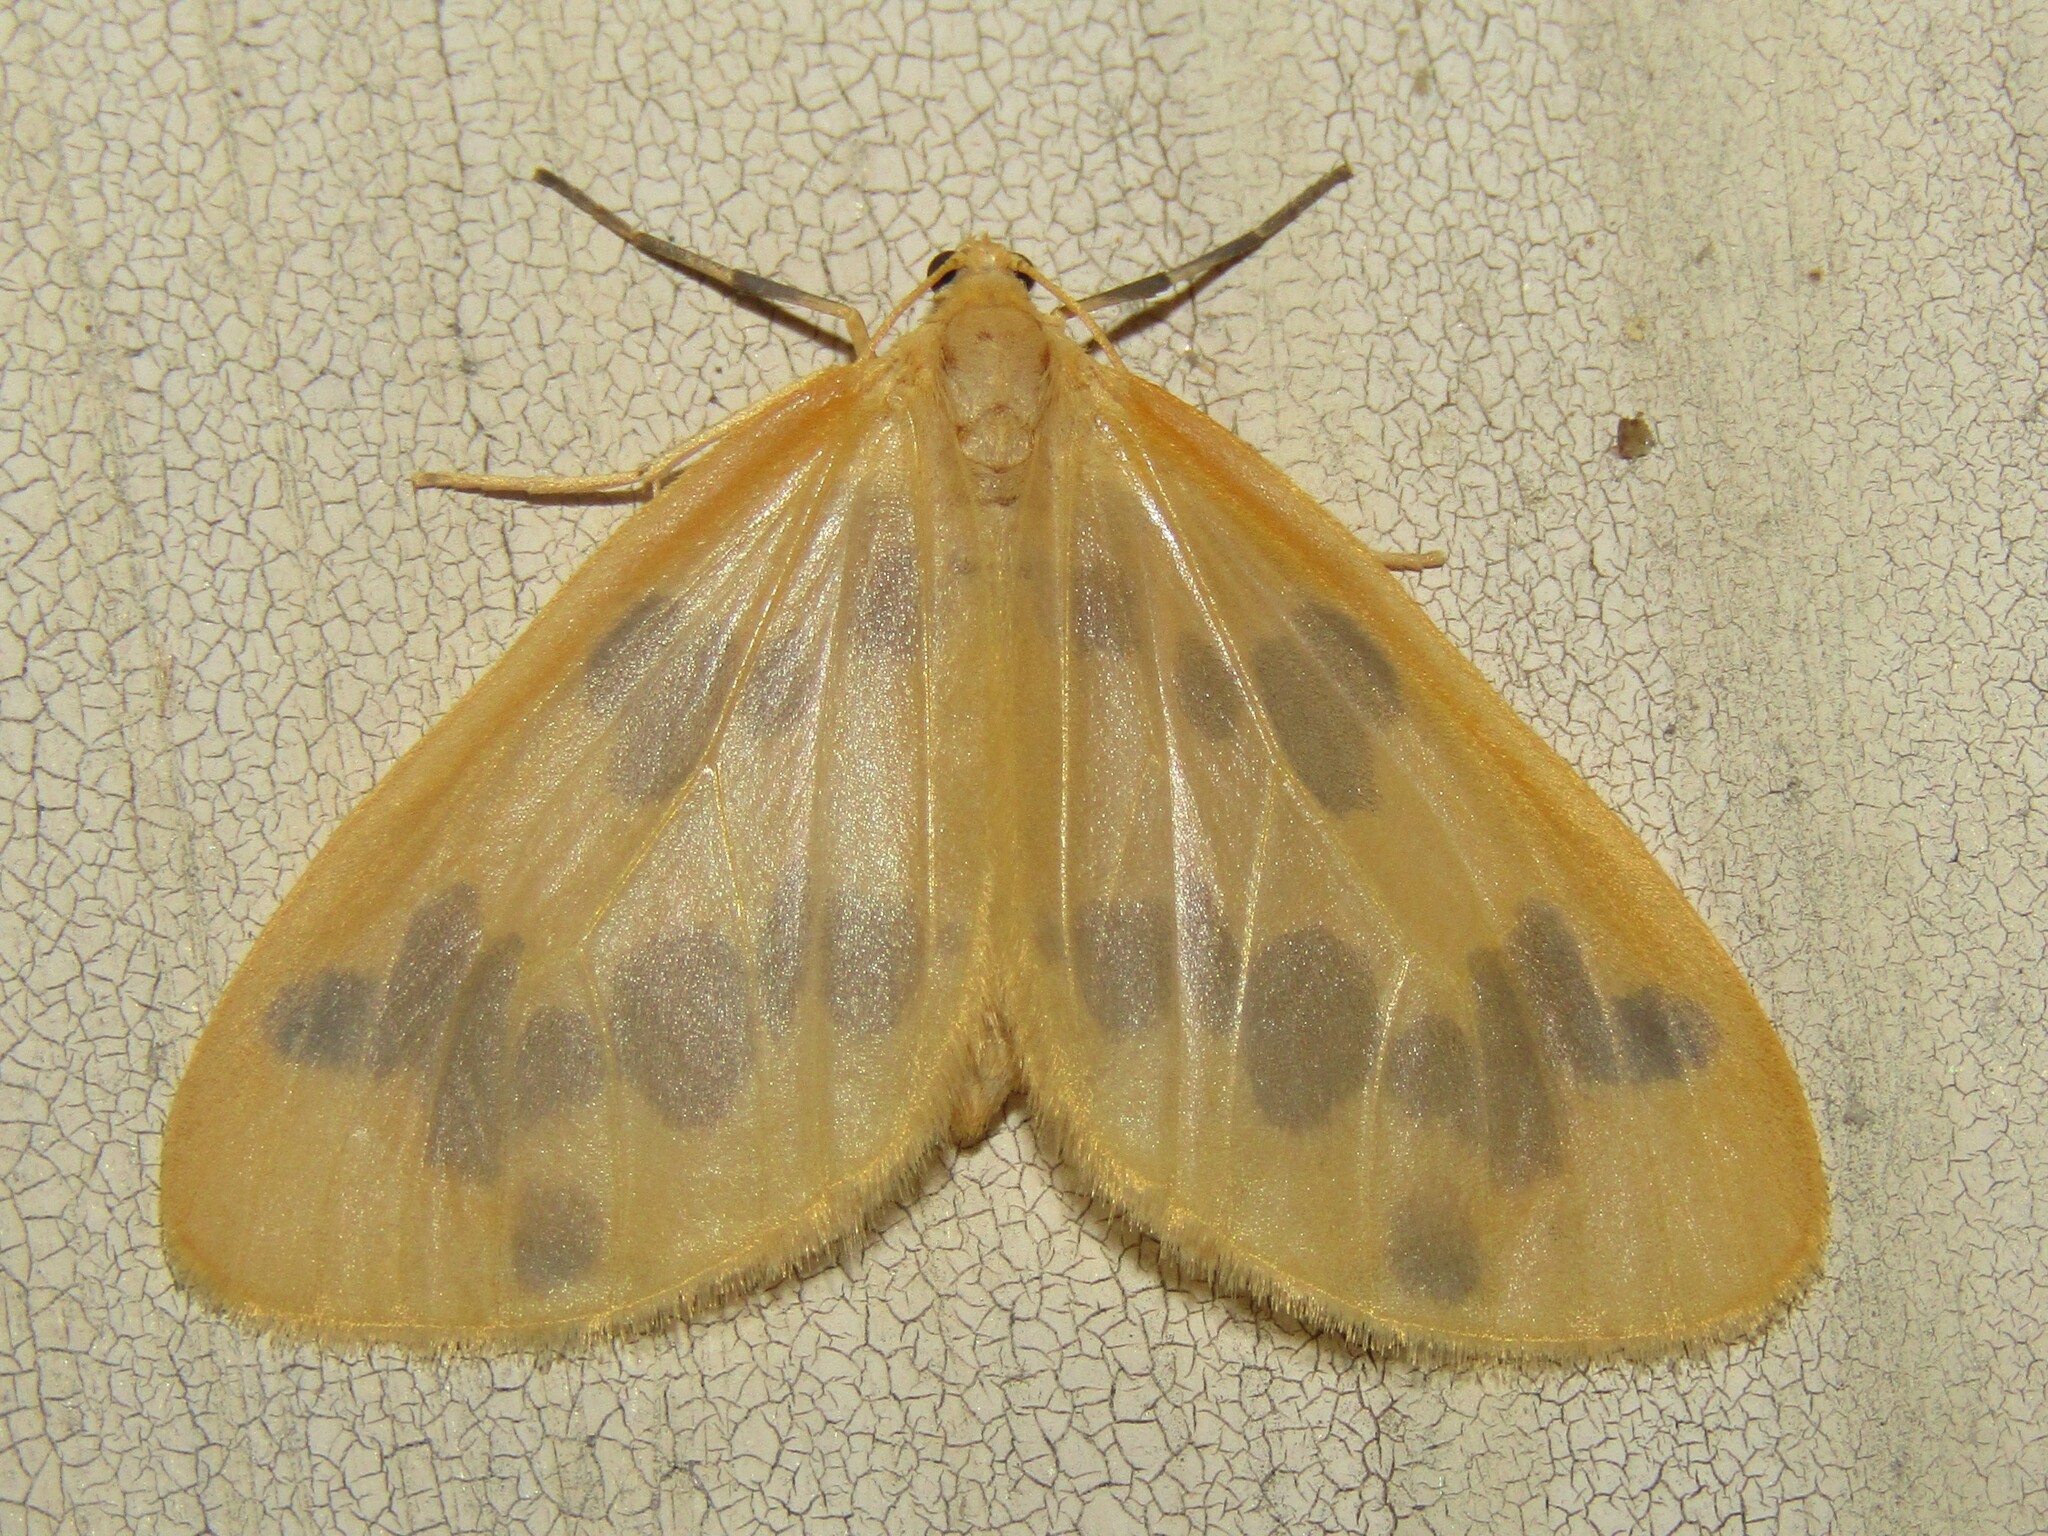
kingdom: Animalia
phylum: Arthropoda
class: Insecta
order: Lepidoptera
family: Geometridae
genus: Eubaphe
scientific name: Eubaphe mendica
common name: Beggar
